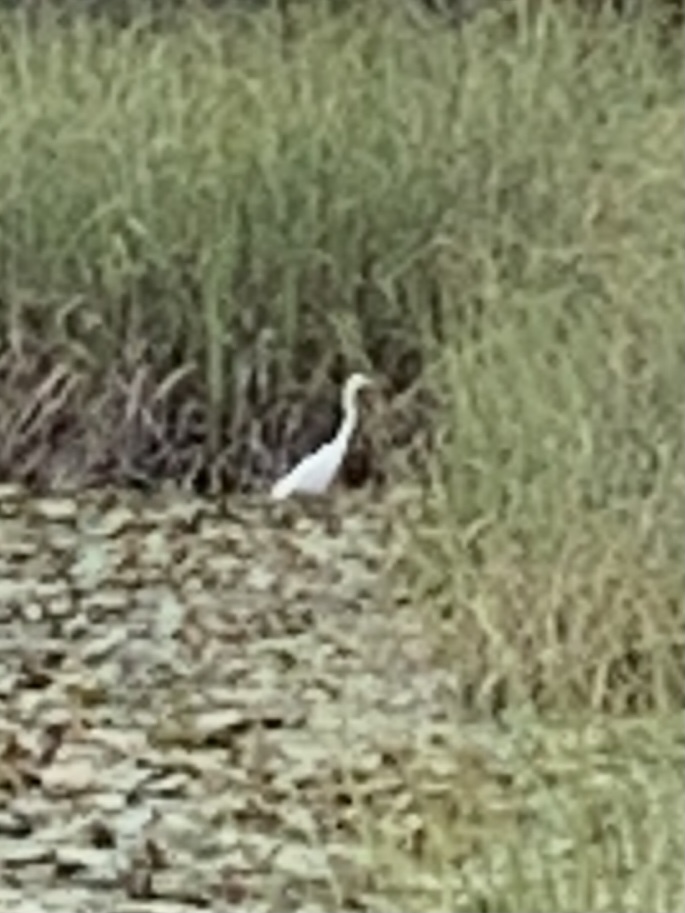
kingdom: Animalia
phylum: Chordata
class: Aves
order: Pelecaniformes
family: Ardeidae
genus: Ardea
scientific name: Ardea alba
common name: Great egret
